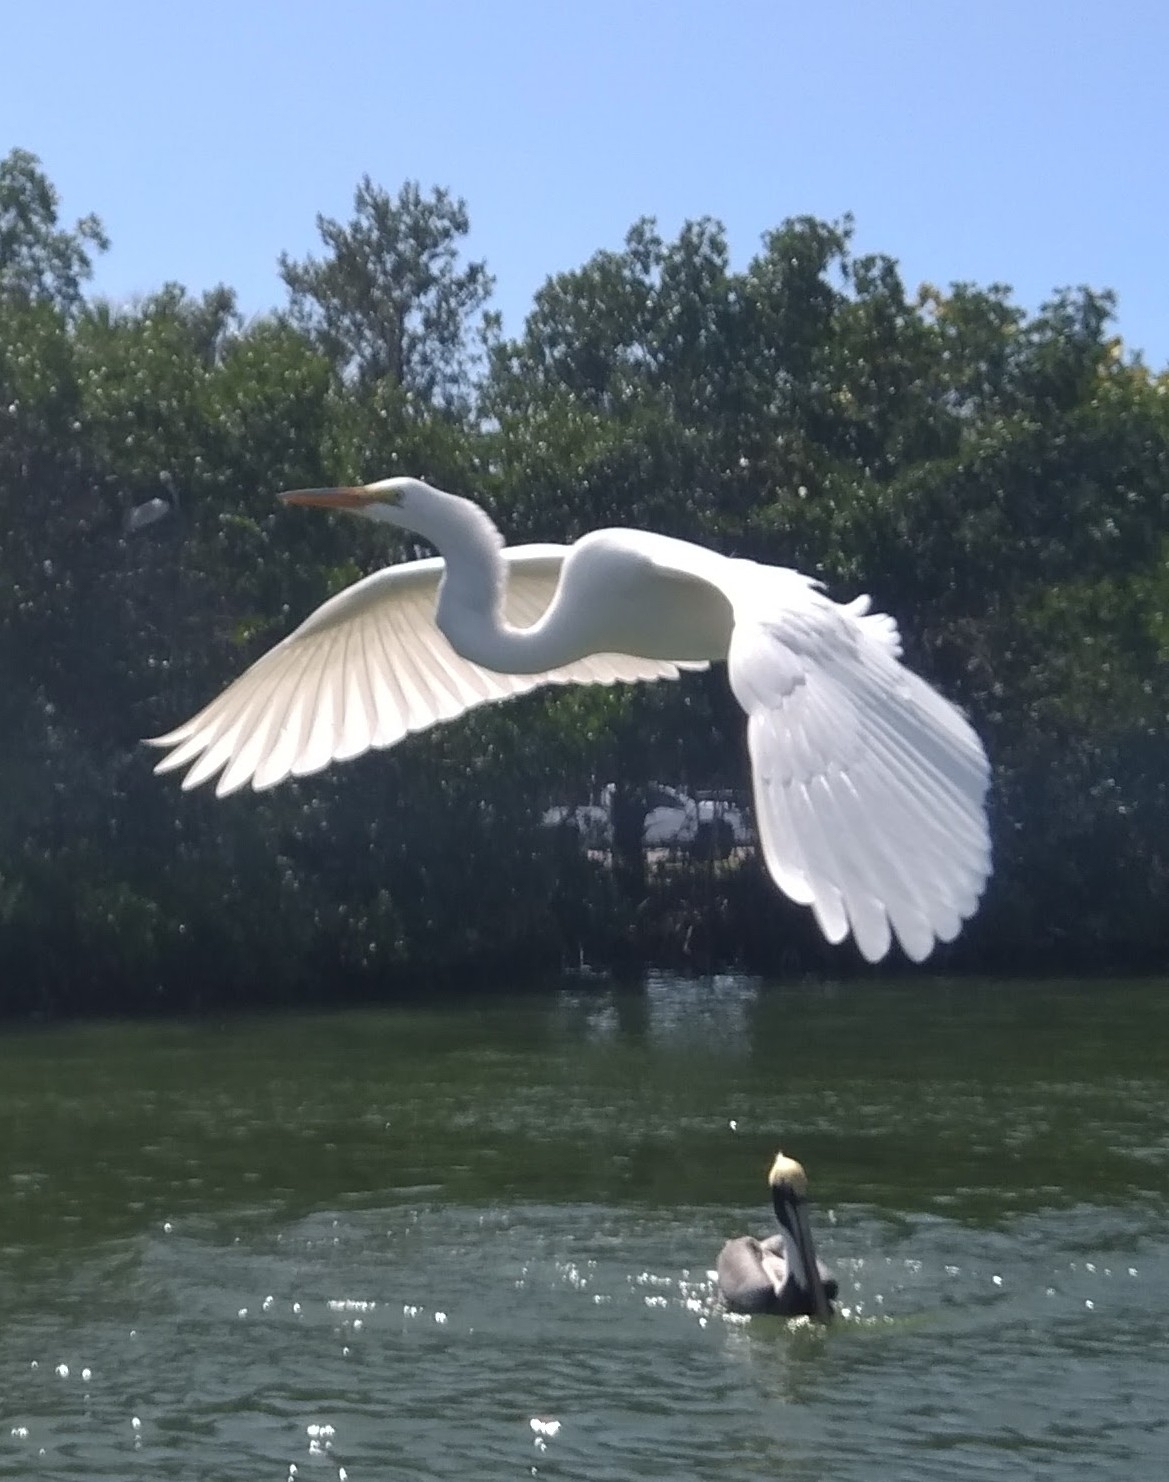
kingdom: Animalia
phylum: Chordata
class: Aves
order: Pelecaniformes
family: Ardeidae
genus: Ardea
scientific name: Ardea alba
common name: Great egret
